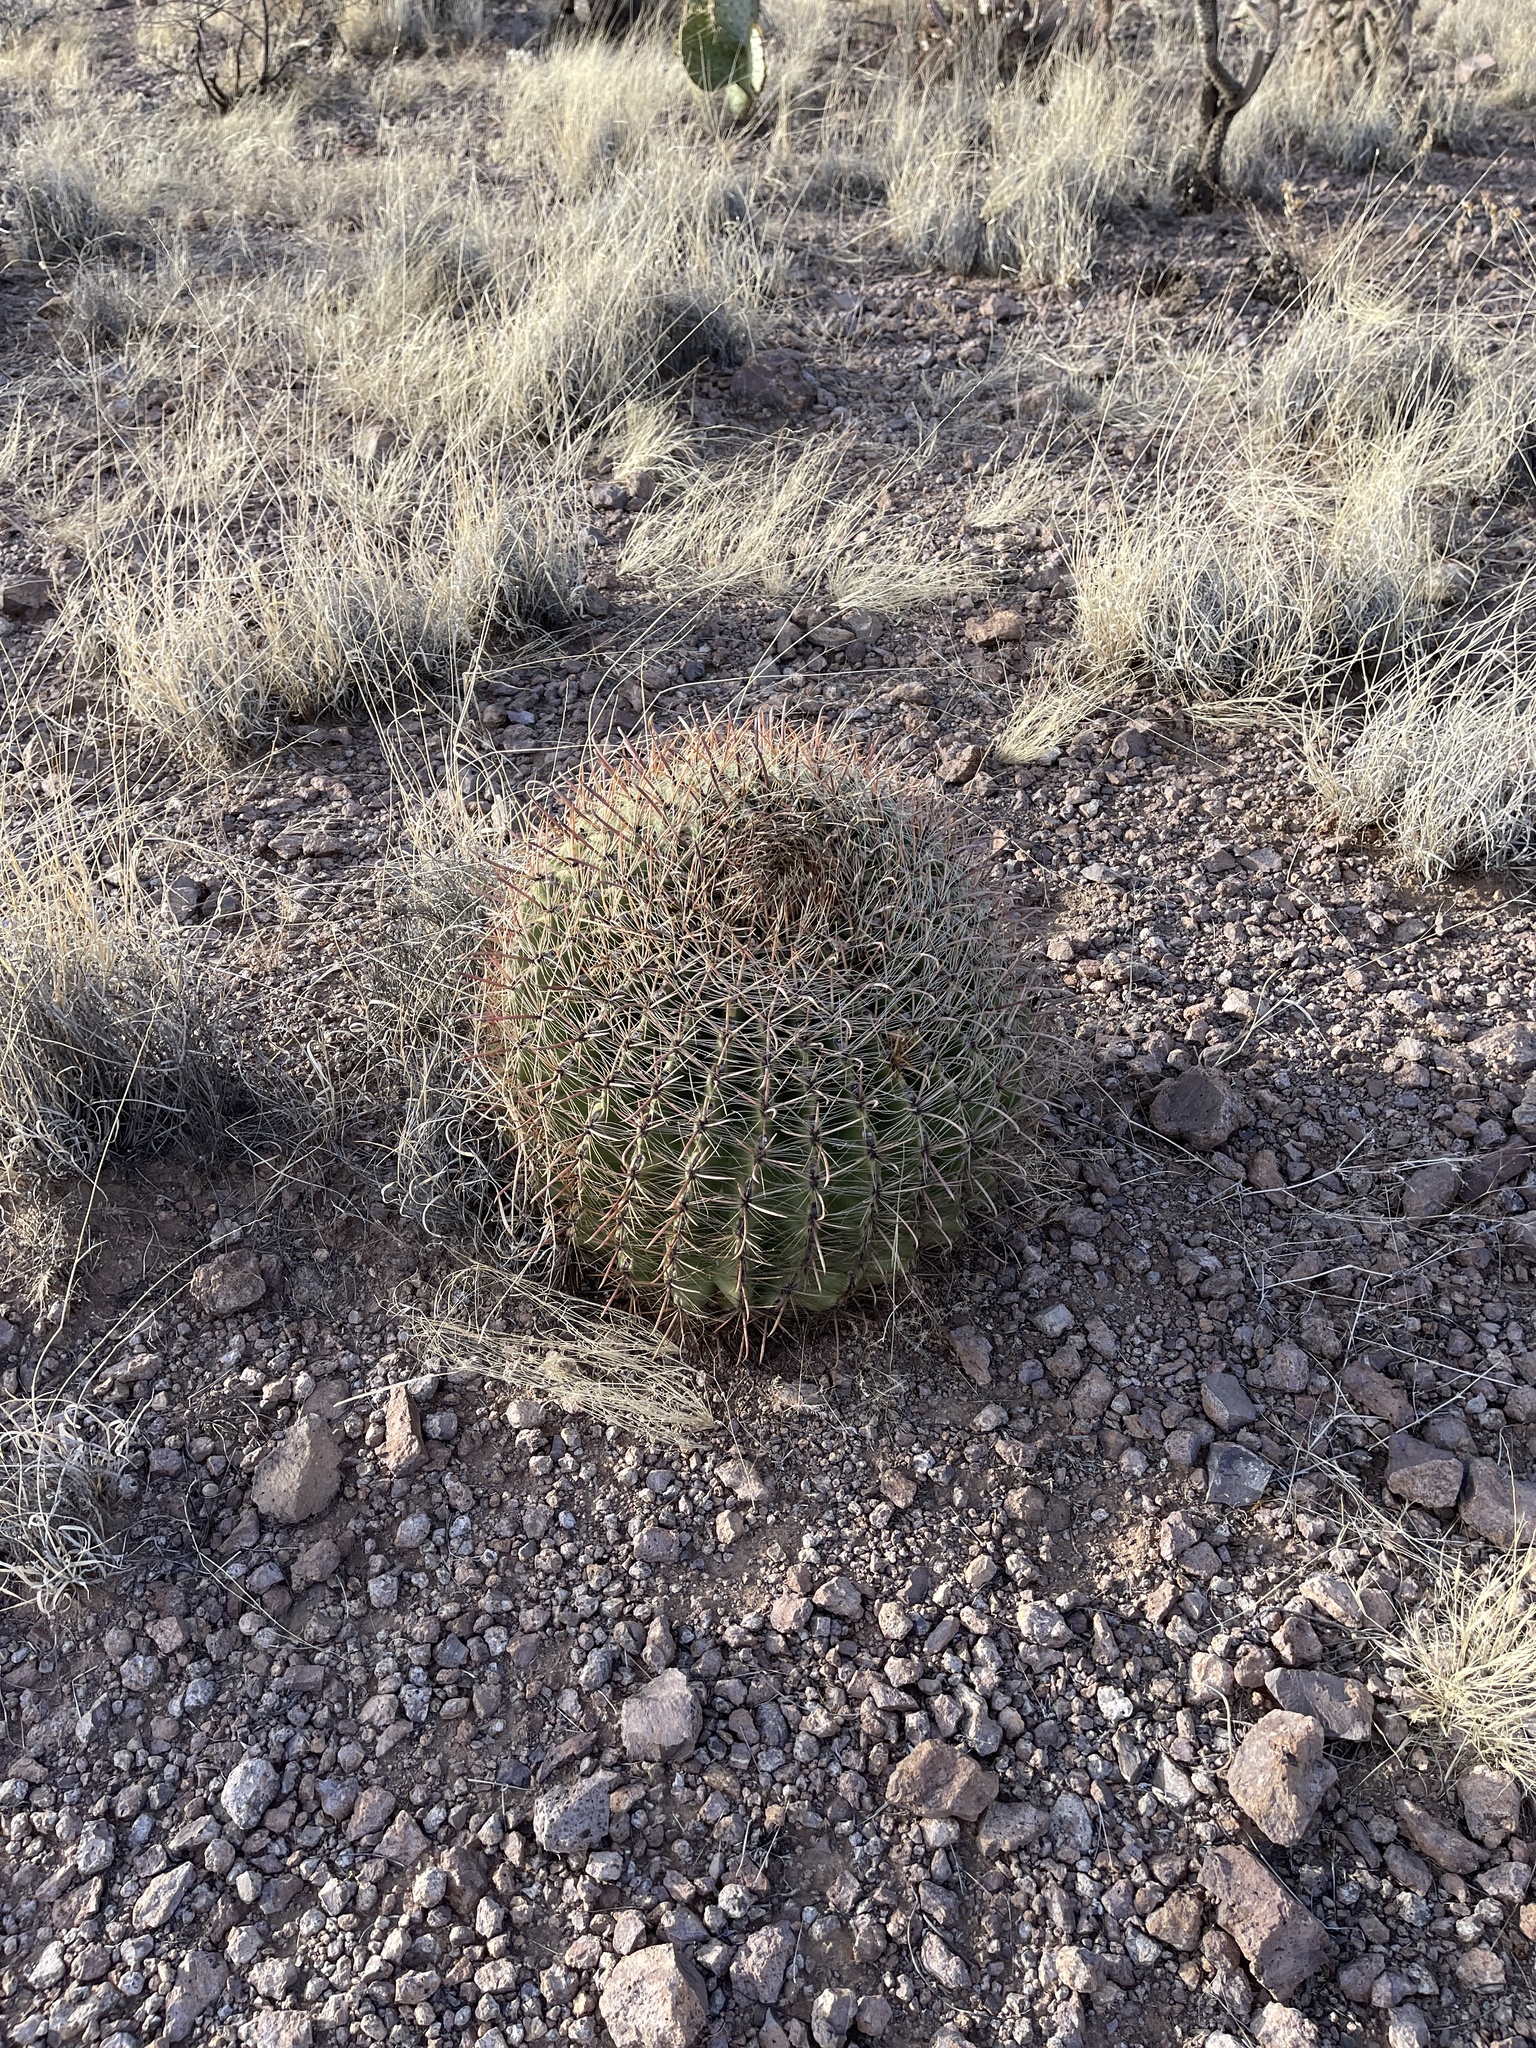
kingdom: Plantae
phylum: Tracheophyta
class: Magnoliopsida
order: Caryophyllales
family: Cactaceae
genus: Ferocactus
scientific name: Ferocactus wislizeni
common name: Candy barrel cactus
